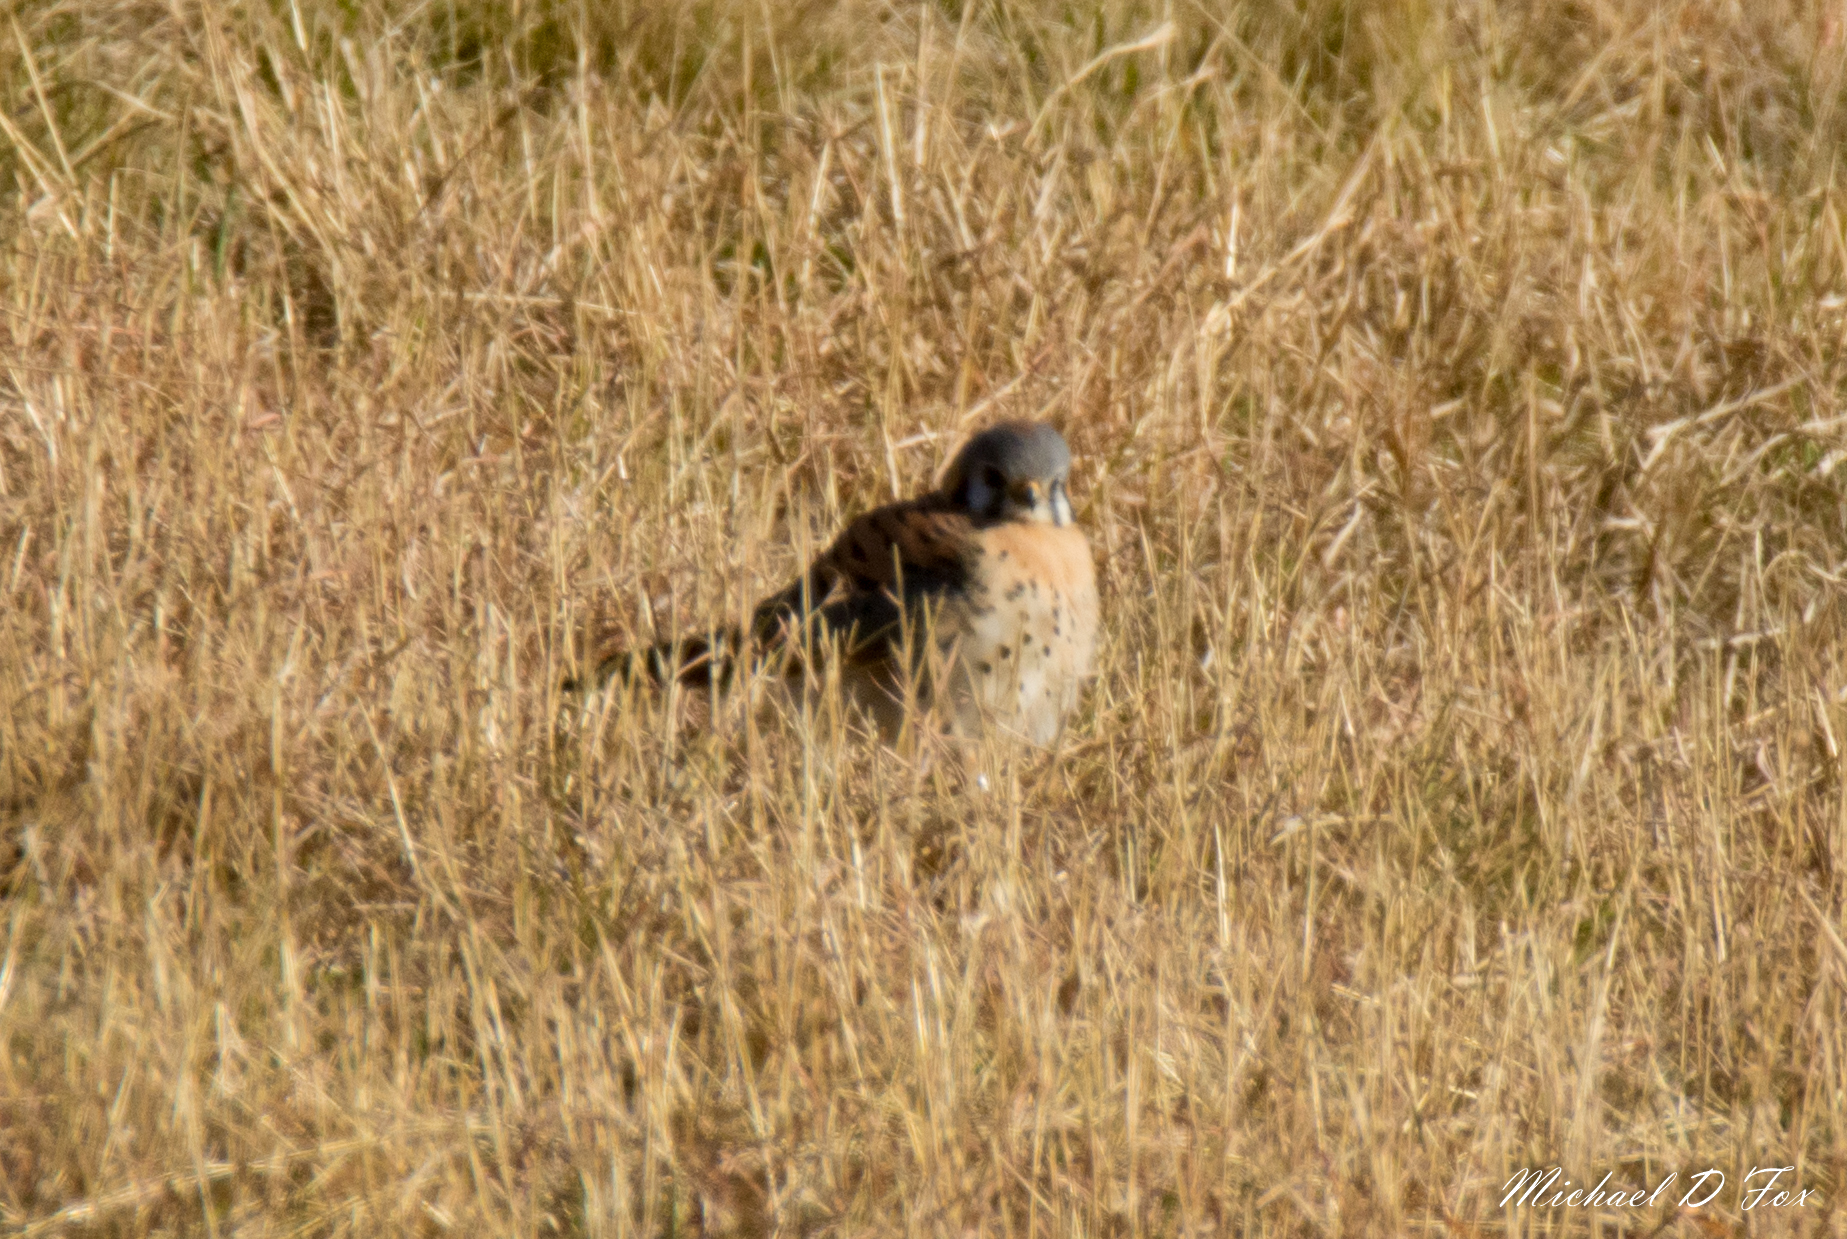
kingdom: Animalia
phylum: Chordata
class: Aves
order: Falconiformes
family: Falconidae
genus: Falco
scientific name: Falco sparverius
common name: American kestrel
